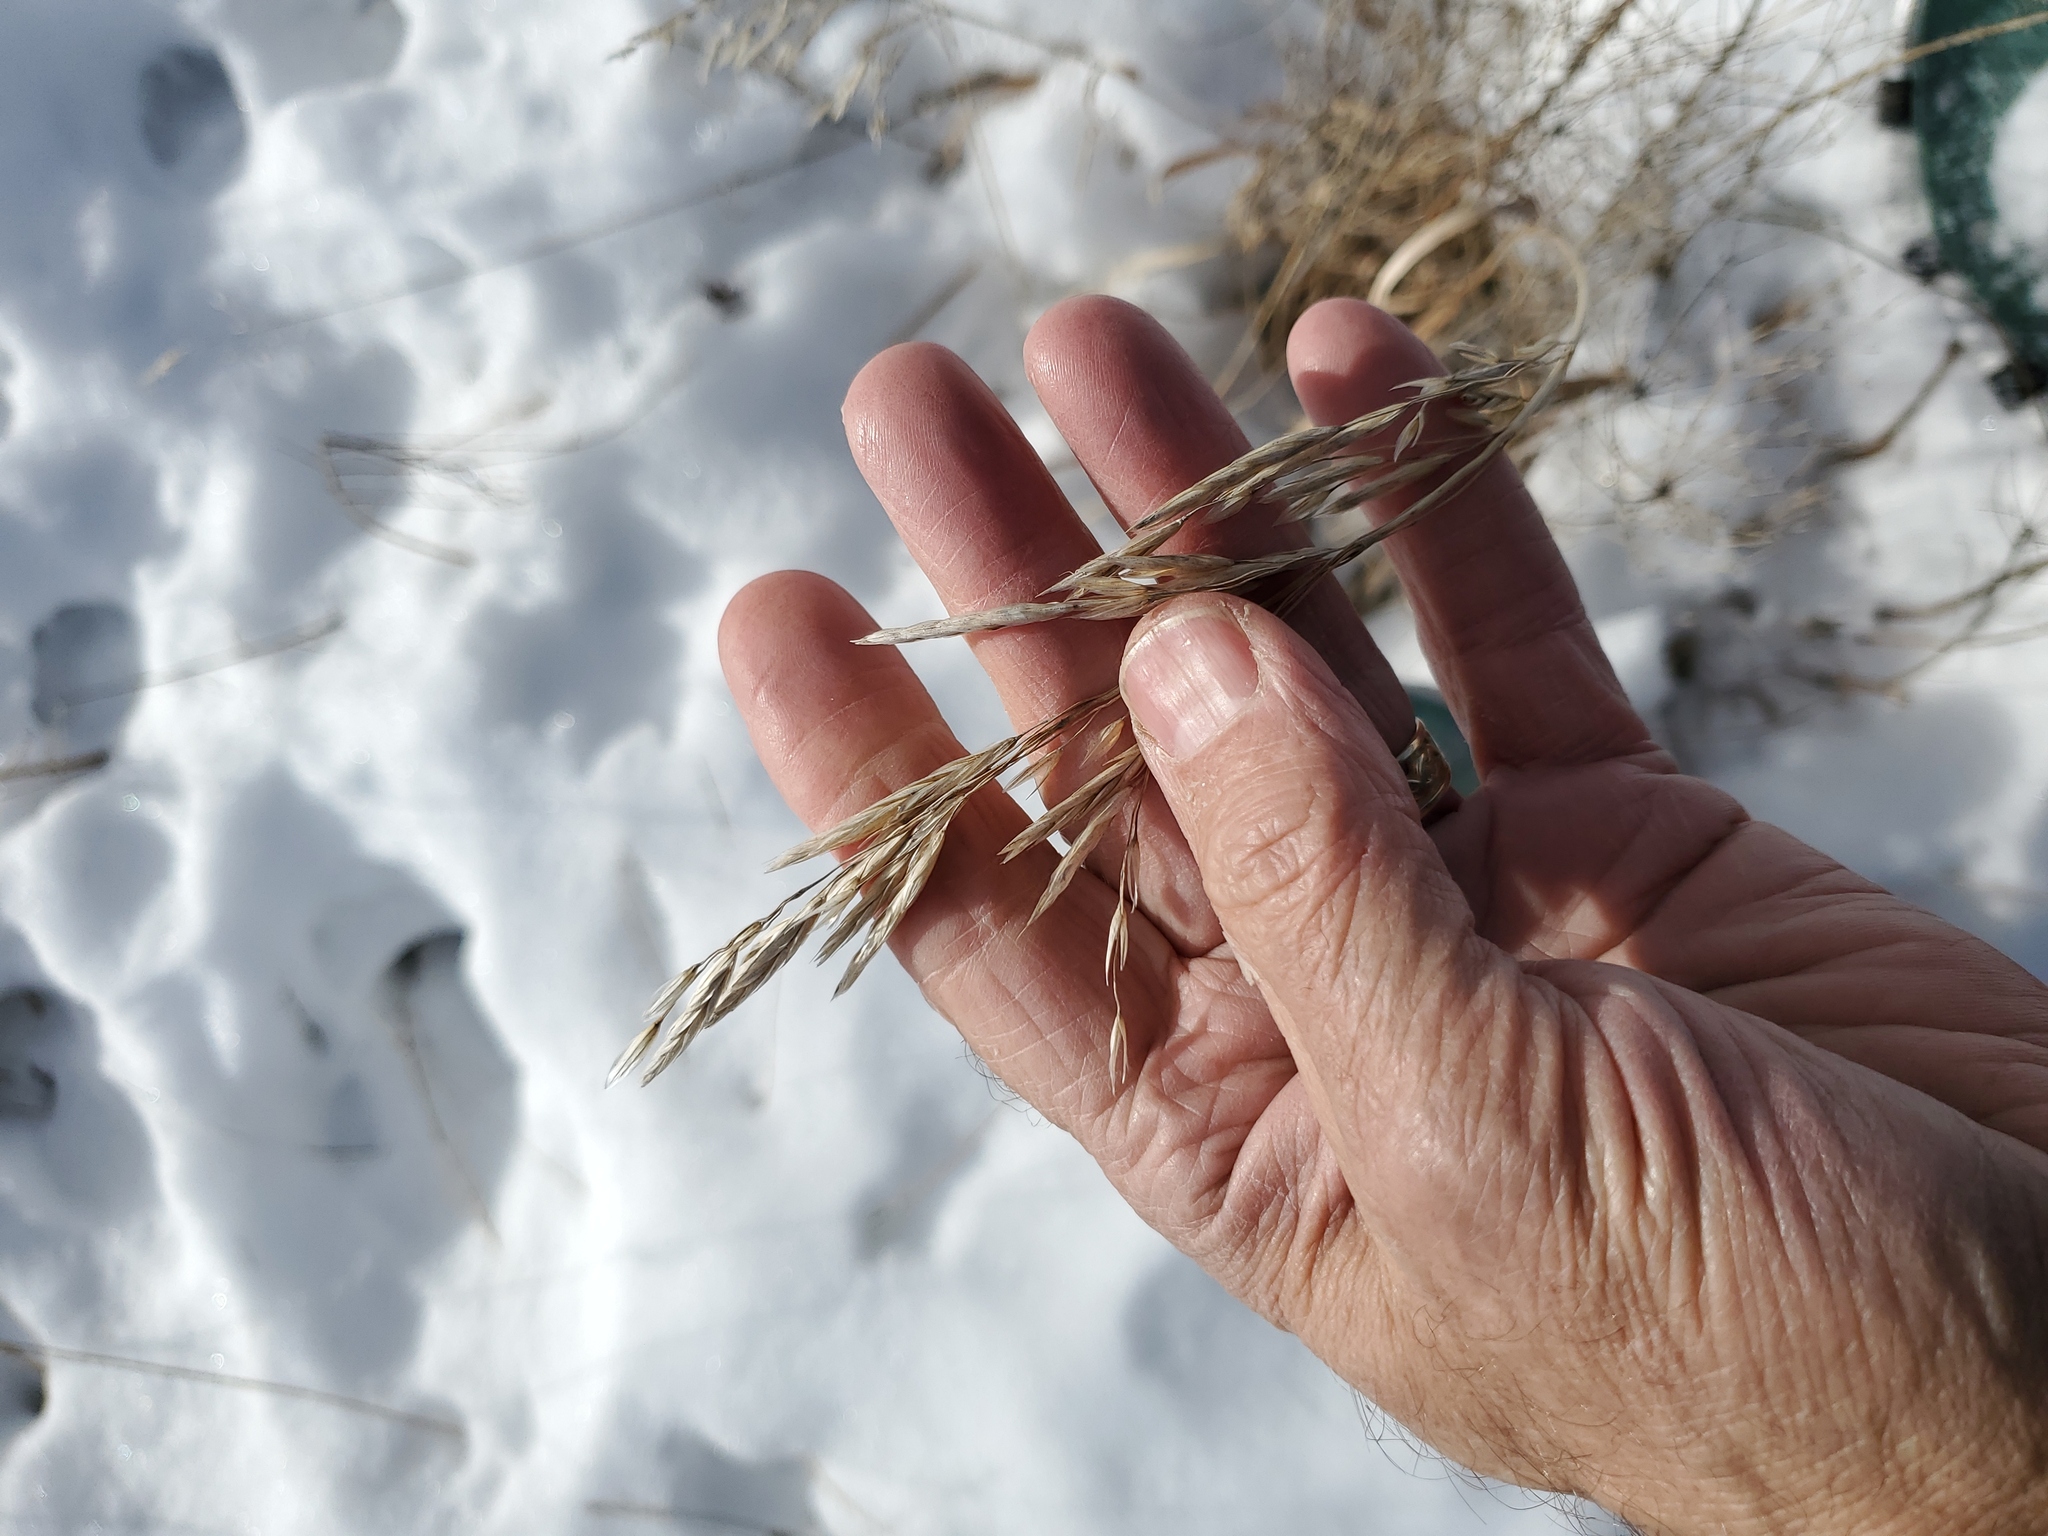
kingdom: Plantae
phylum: Tracheophyta
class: Liliopsida
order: Poales
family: Poaceae
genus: Bromus
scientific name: Bromus inermis
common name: Smooth brome
